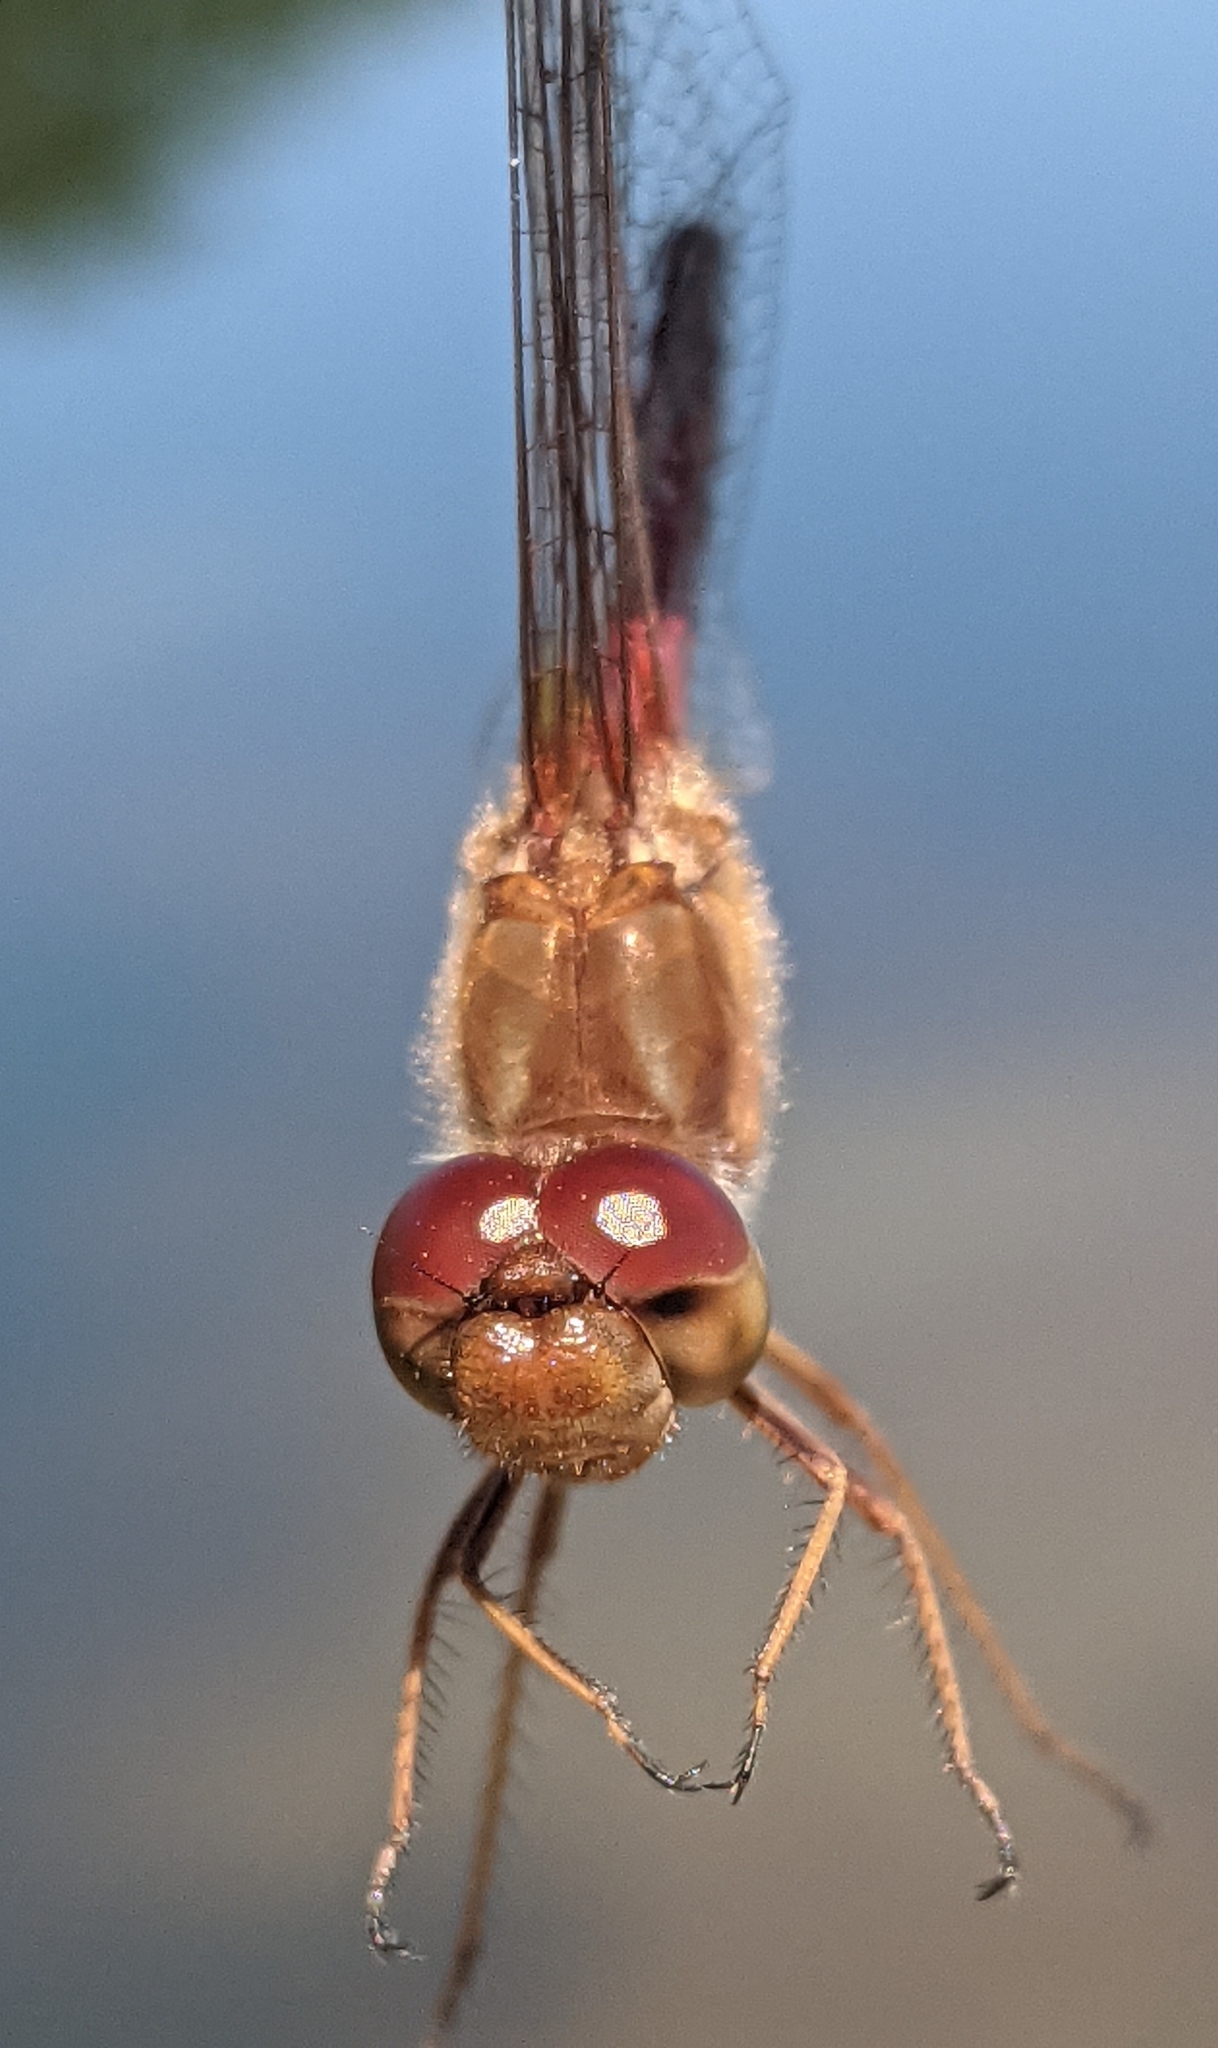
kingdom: Animalia
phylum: Arthropoda
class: Insecta
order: Odonata
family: Libellulidae
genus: Sympetrum
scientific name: Sympetrum vicinum
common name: Autumn meadowhawk
